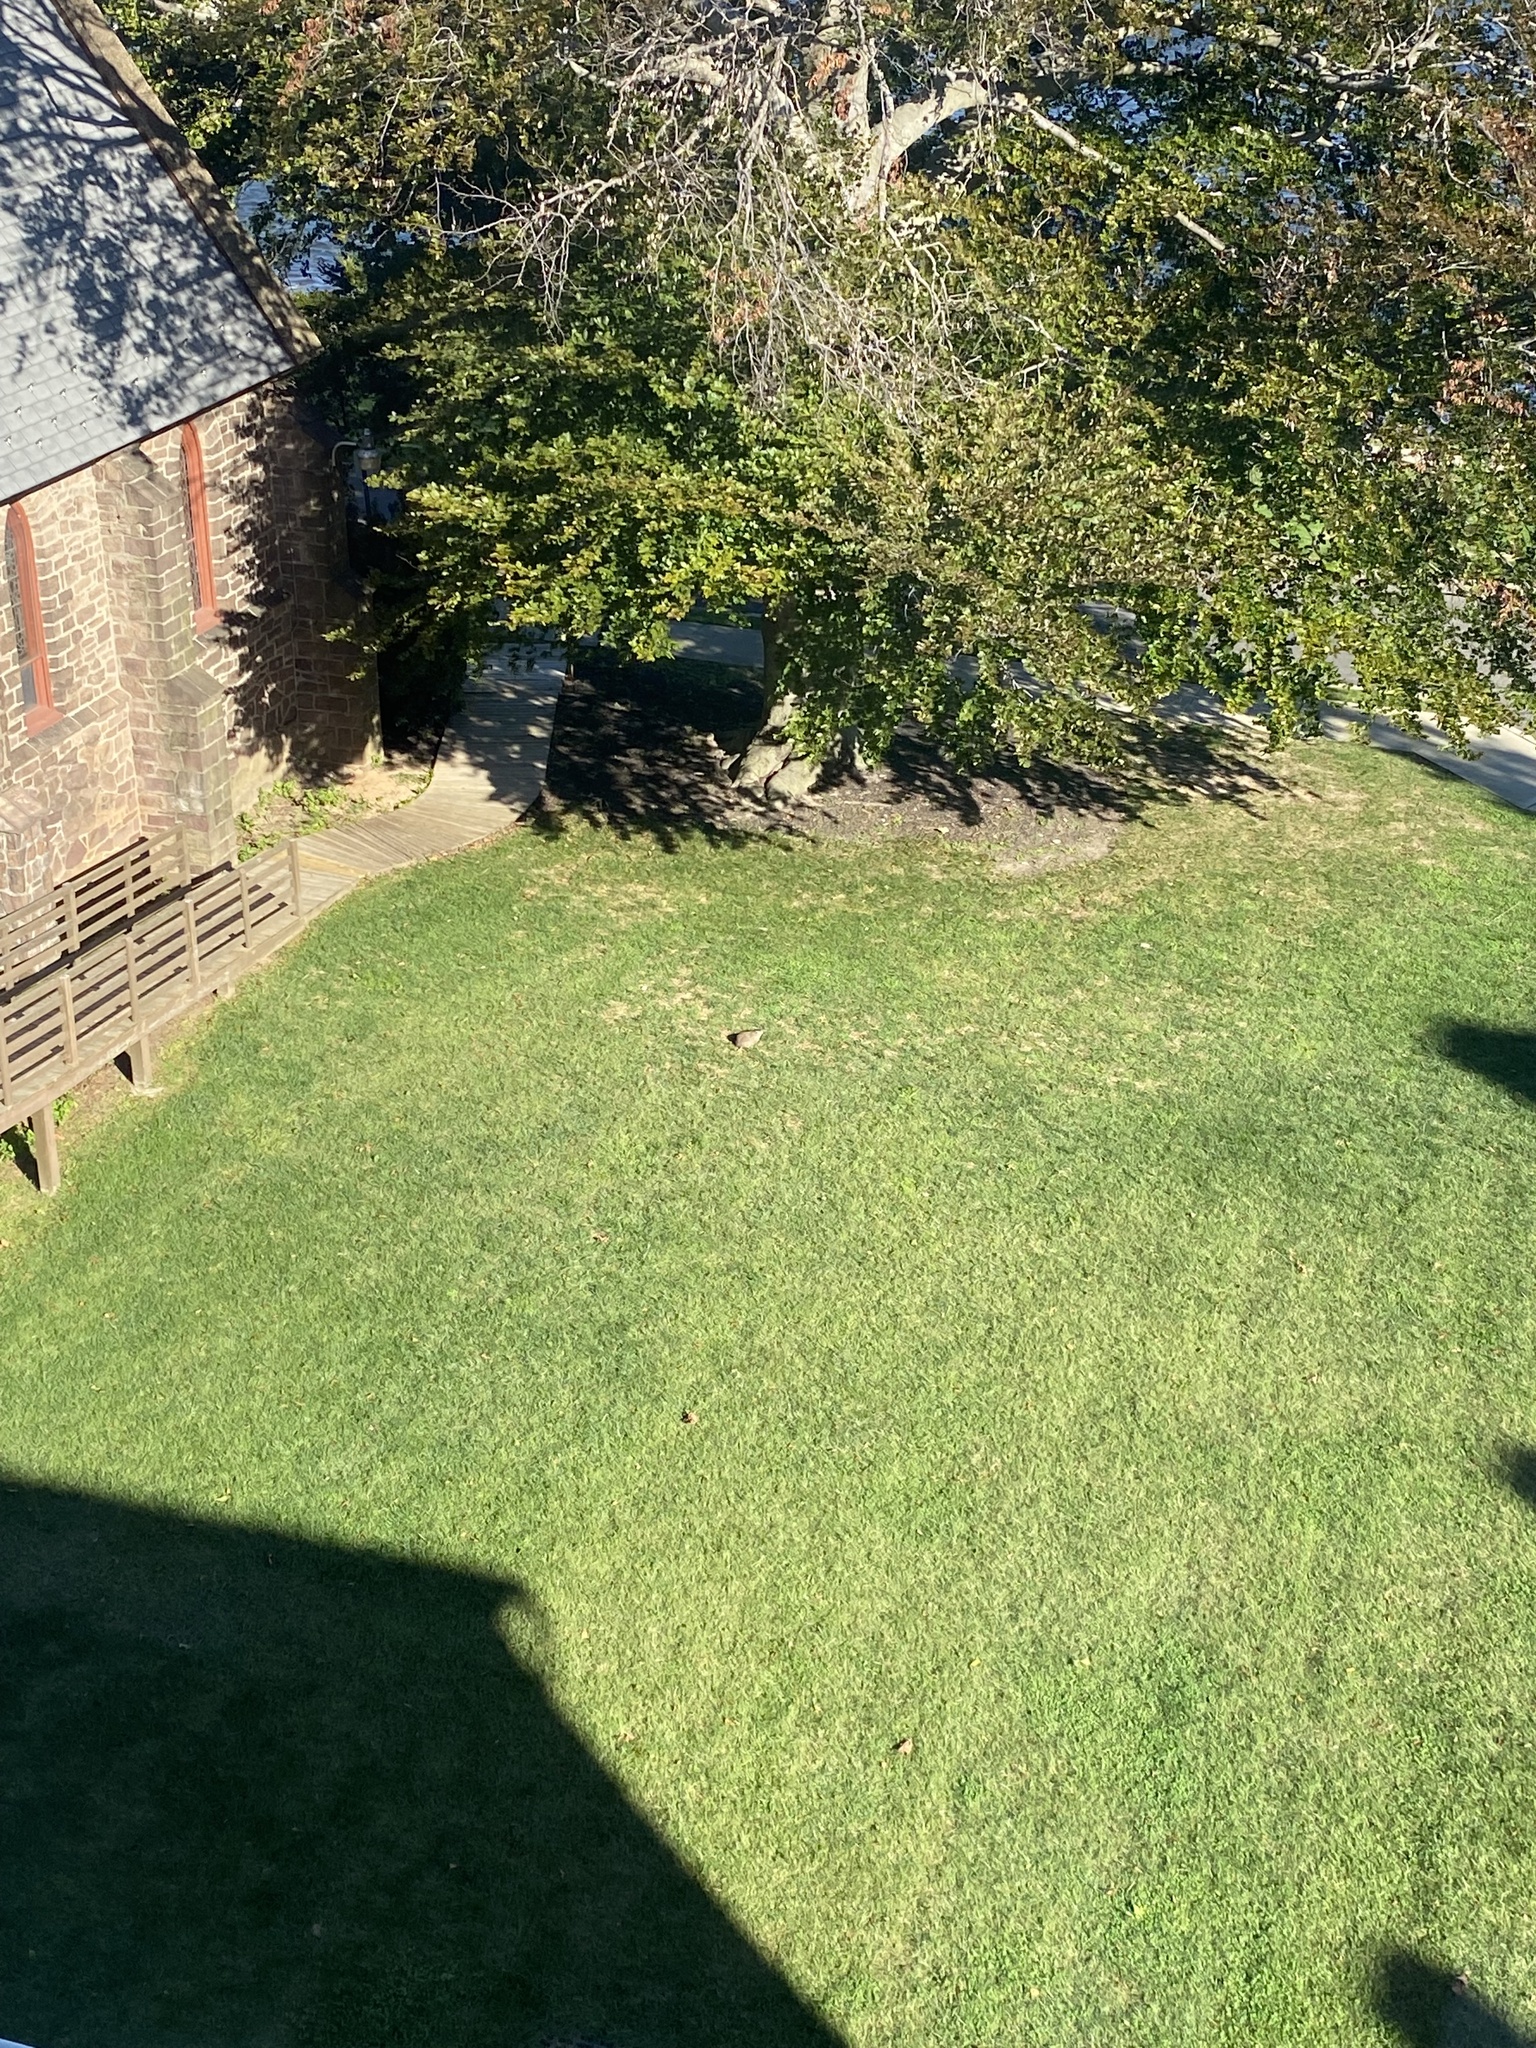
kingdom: Animalia
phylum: Chordata
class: Mammalia
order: Rodentia
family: Sciuridae
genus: Marmota
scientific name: Marmota monax
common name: Groundhog
